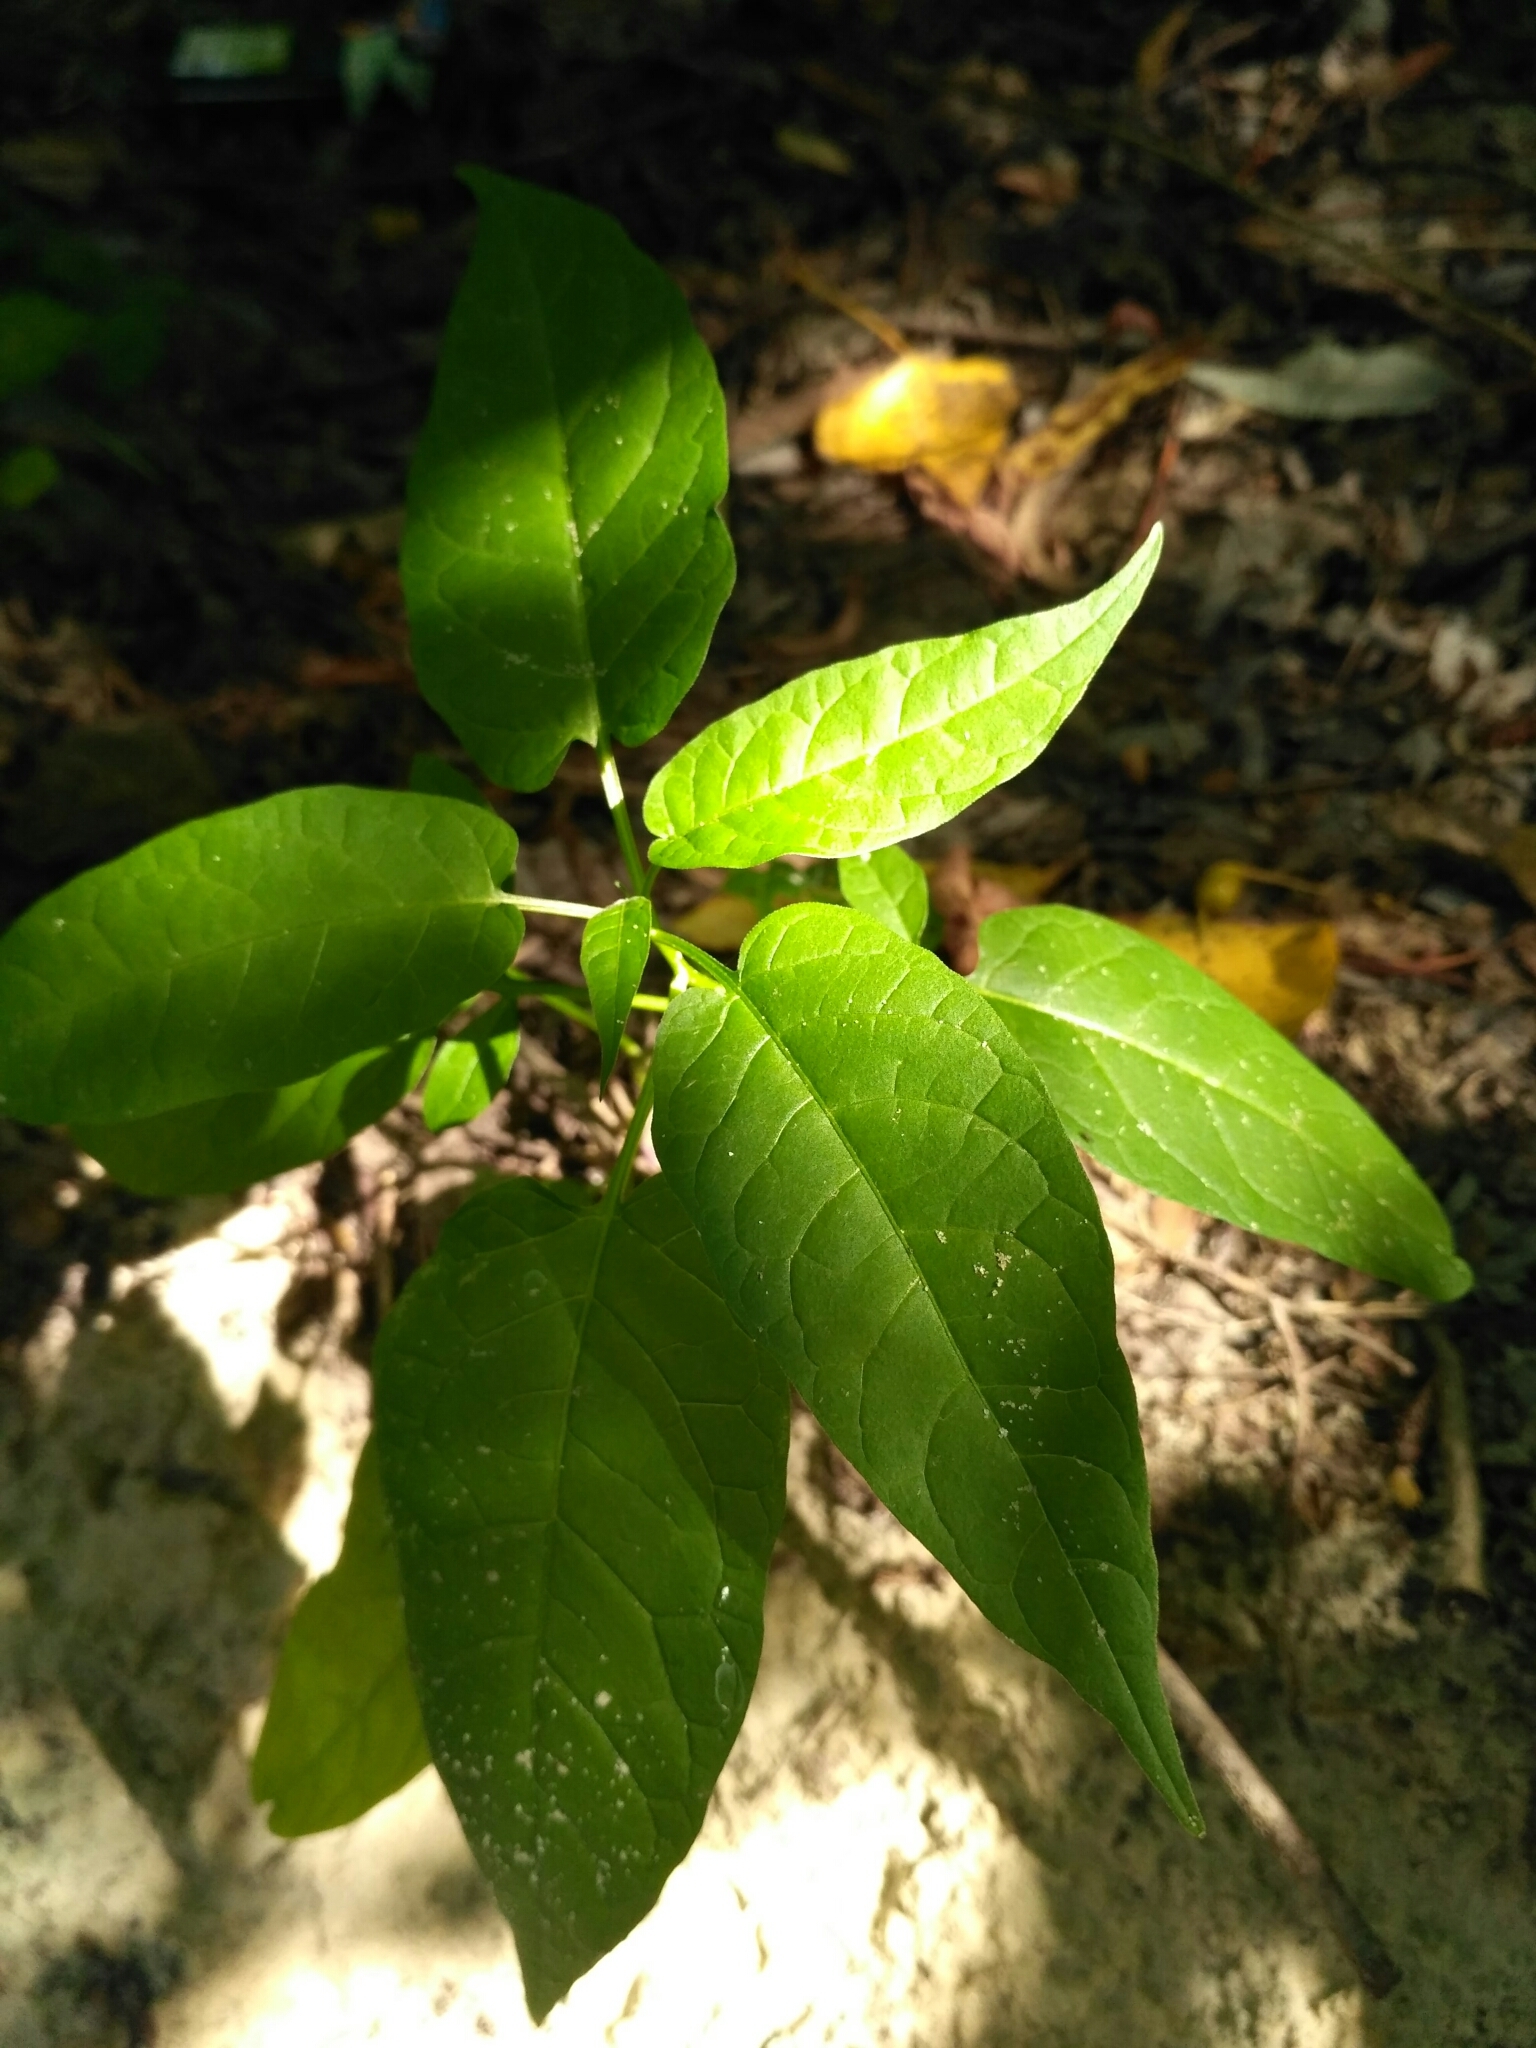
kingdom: Plantae
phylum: Tracheophyta
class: Magnoliopsida
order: Solanales
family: Solanaceae
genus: Solanum
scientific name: Solanum dulcamara
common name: Climbing nightshade
